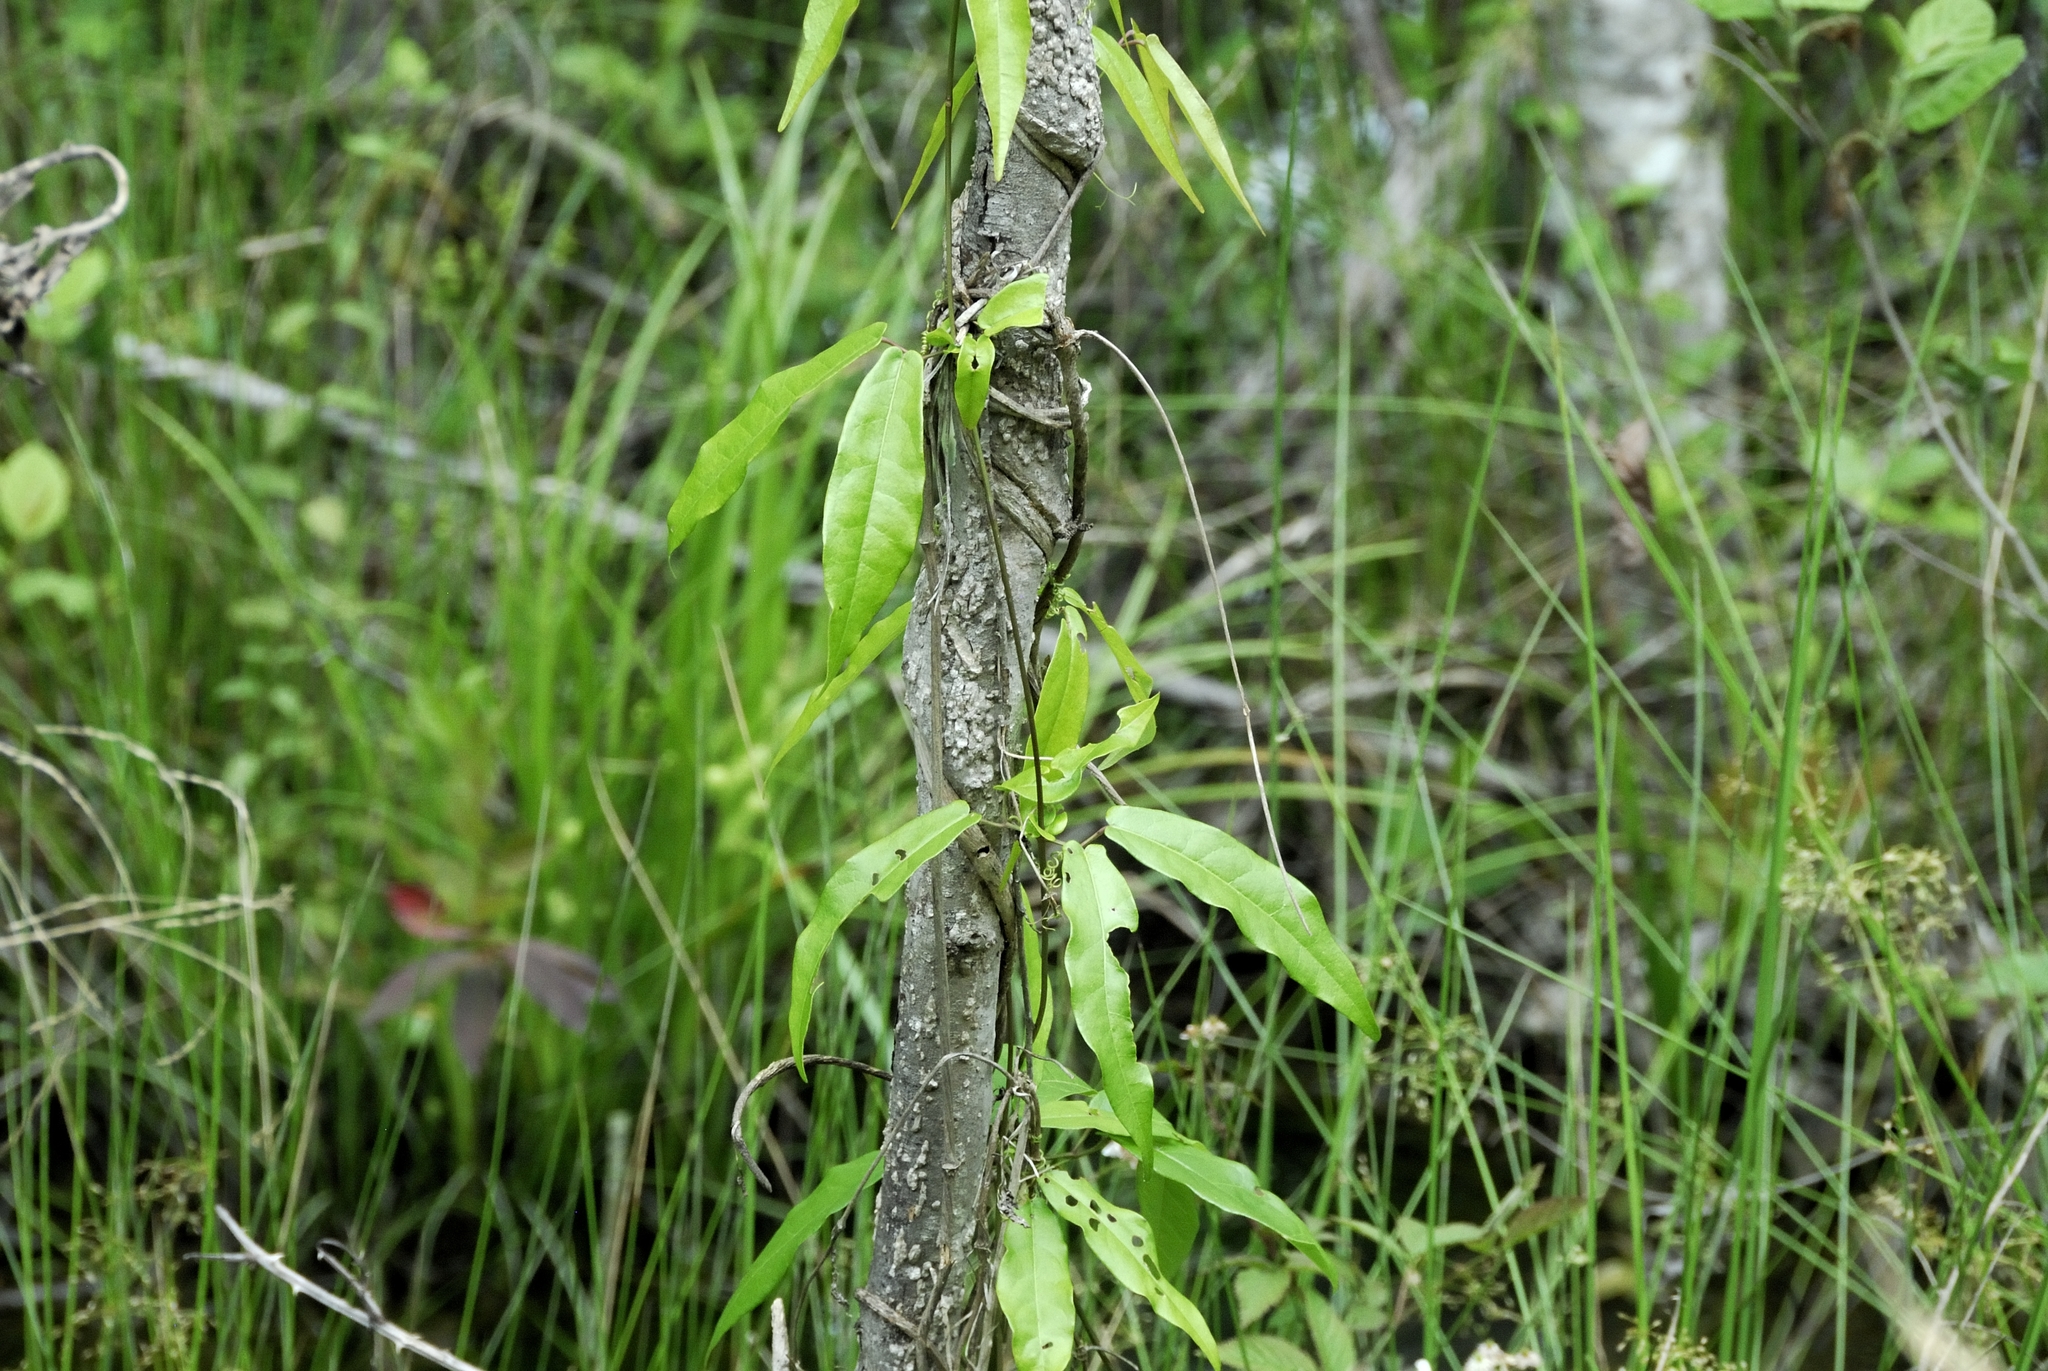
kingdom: Plantae
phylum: Tracheophyta
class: Magnoliopsida
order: Lamiales
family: Bignoniaceae
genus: Bignonia
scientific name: Bignonia capreolata
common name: Crossvine
